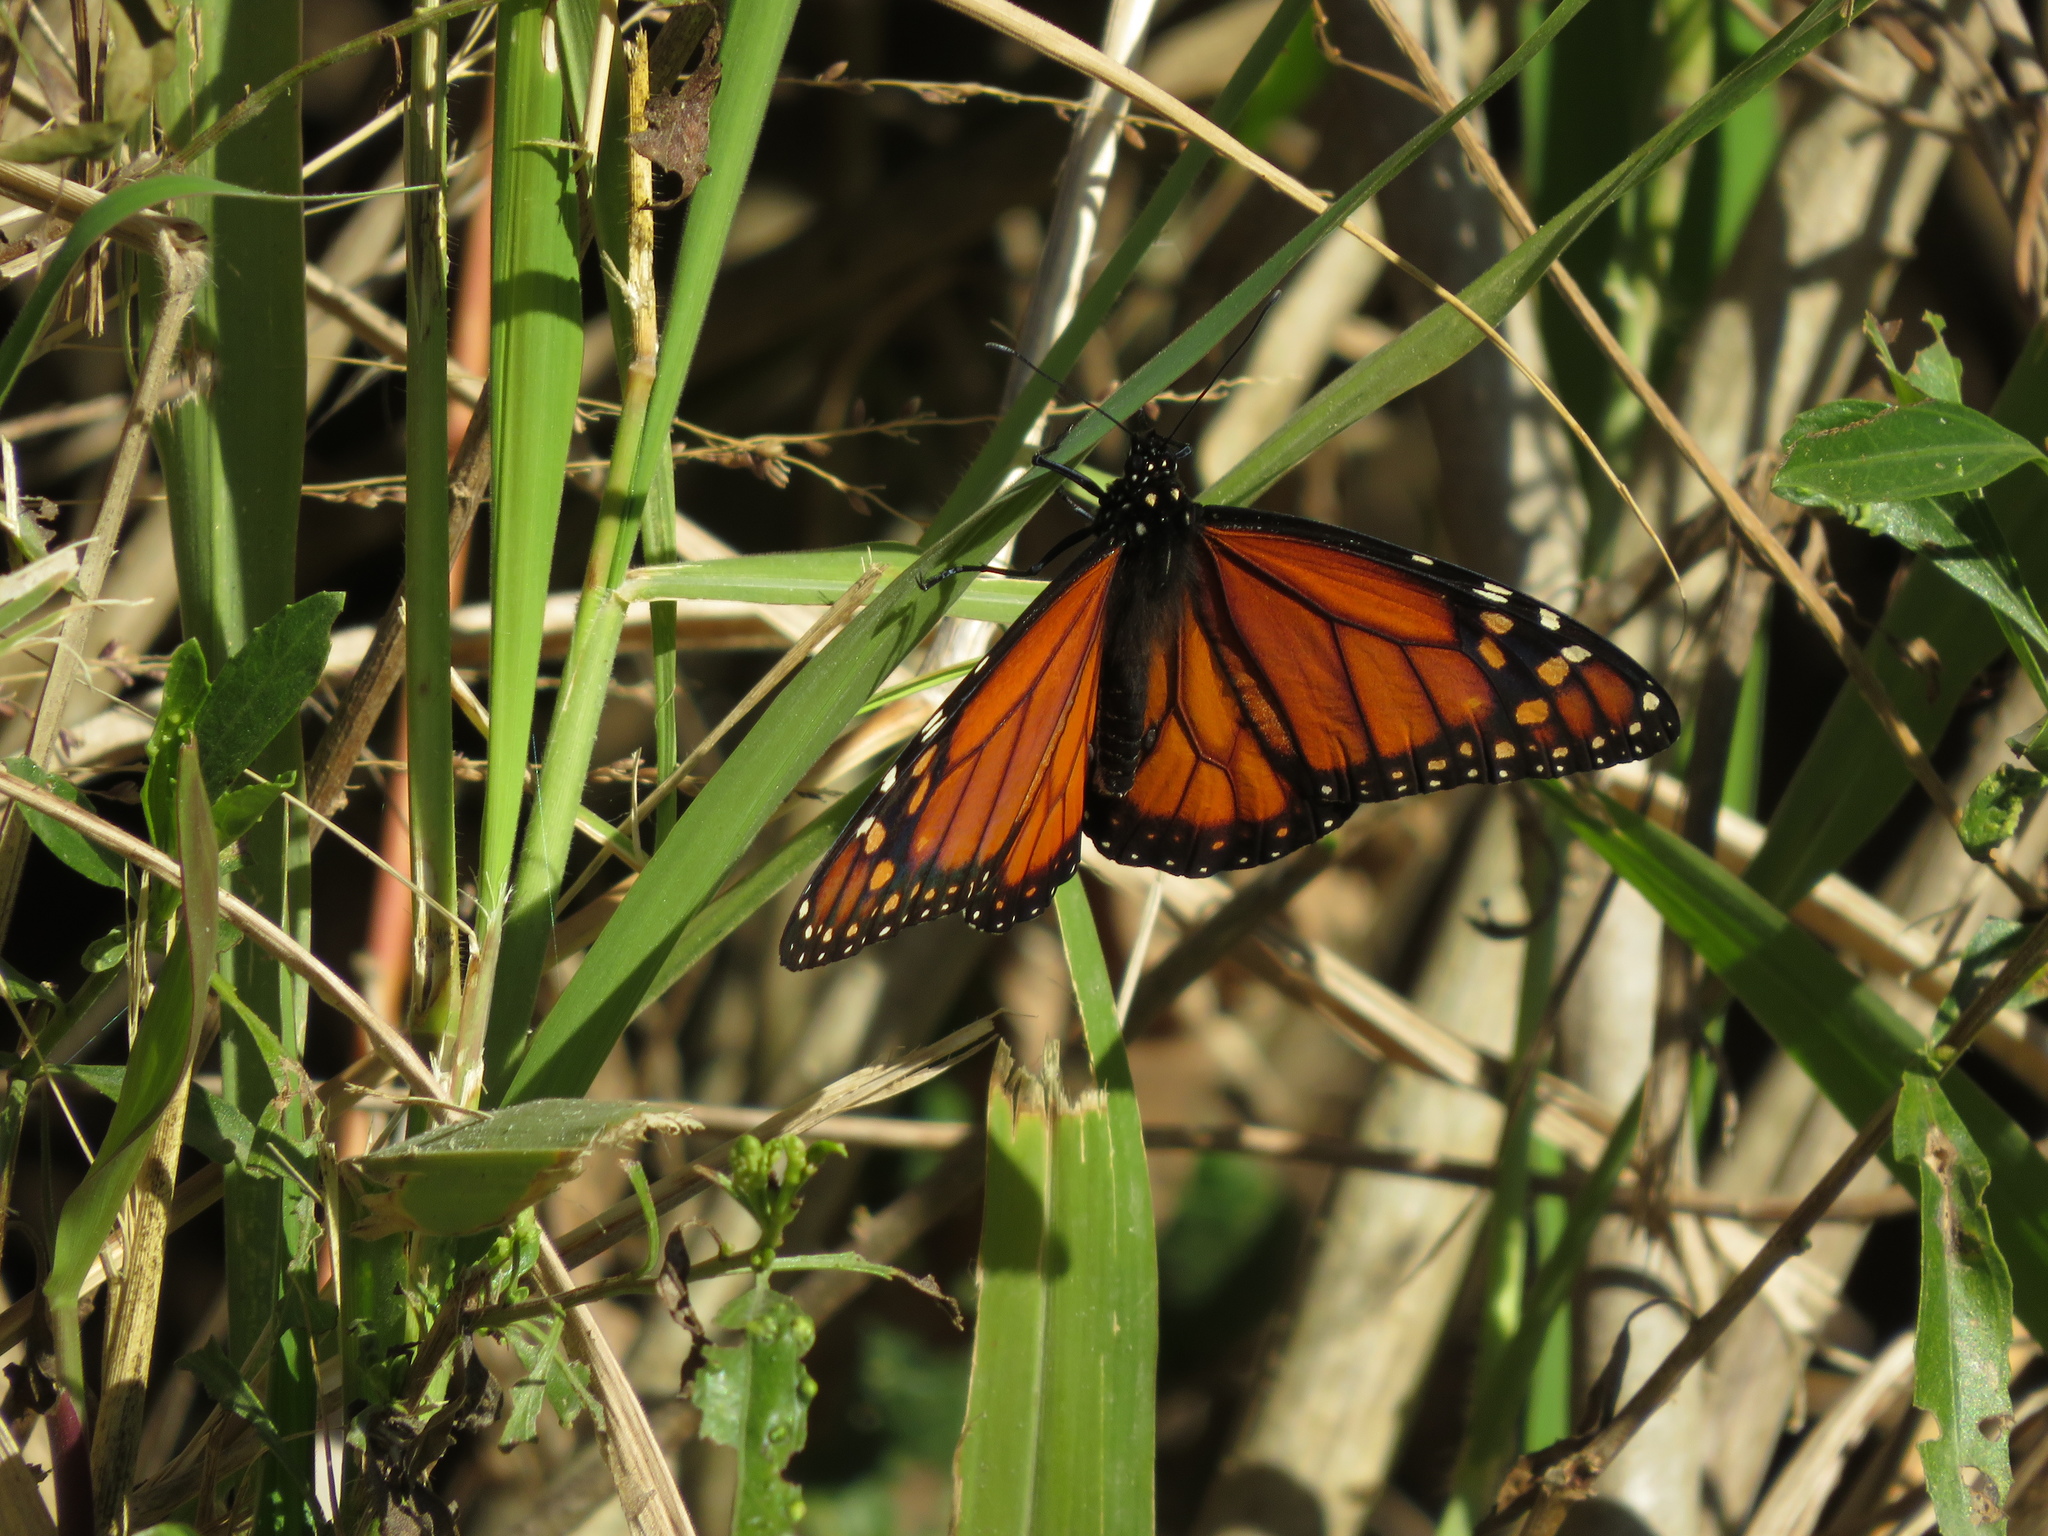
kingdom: Animalia
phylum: Arthropoda
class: Insecta
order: Lepidoptera
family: Nymphalidae
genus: Danaus
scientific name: Danaus erippus
